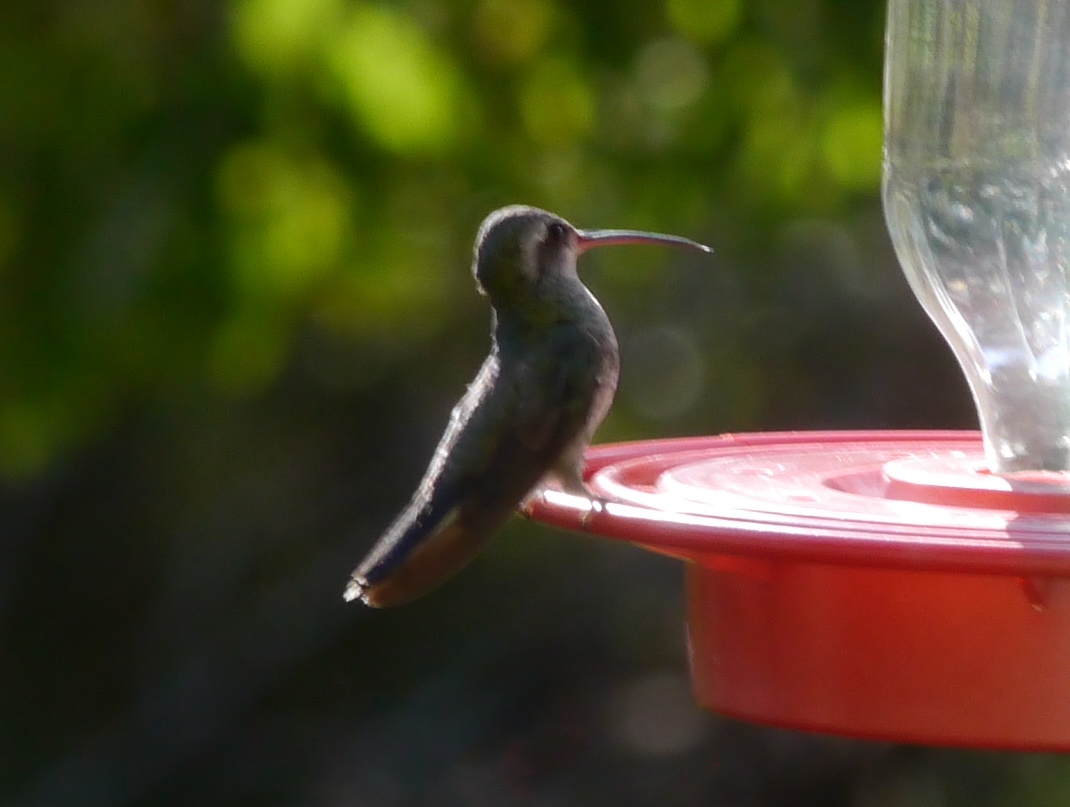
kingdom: Animalia
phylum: Chordata
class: Aves
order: Apodiformes
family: Trochilidae
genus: Cynanthus
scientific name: Cynanthus latirostris
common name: Broad-billed hummingbird
